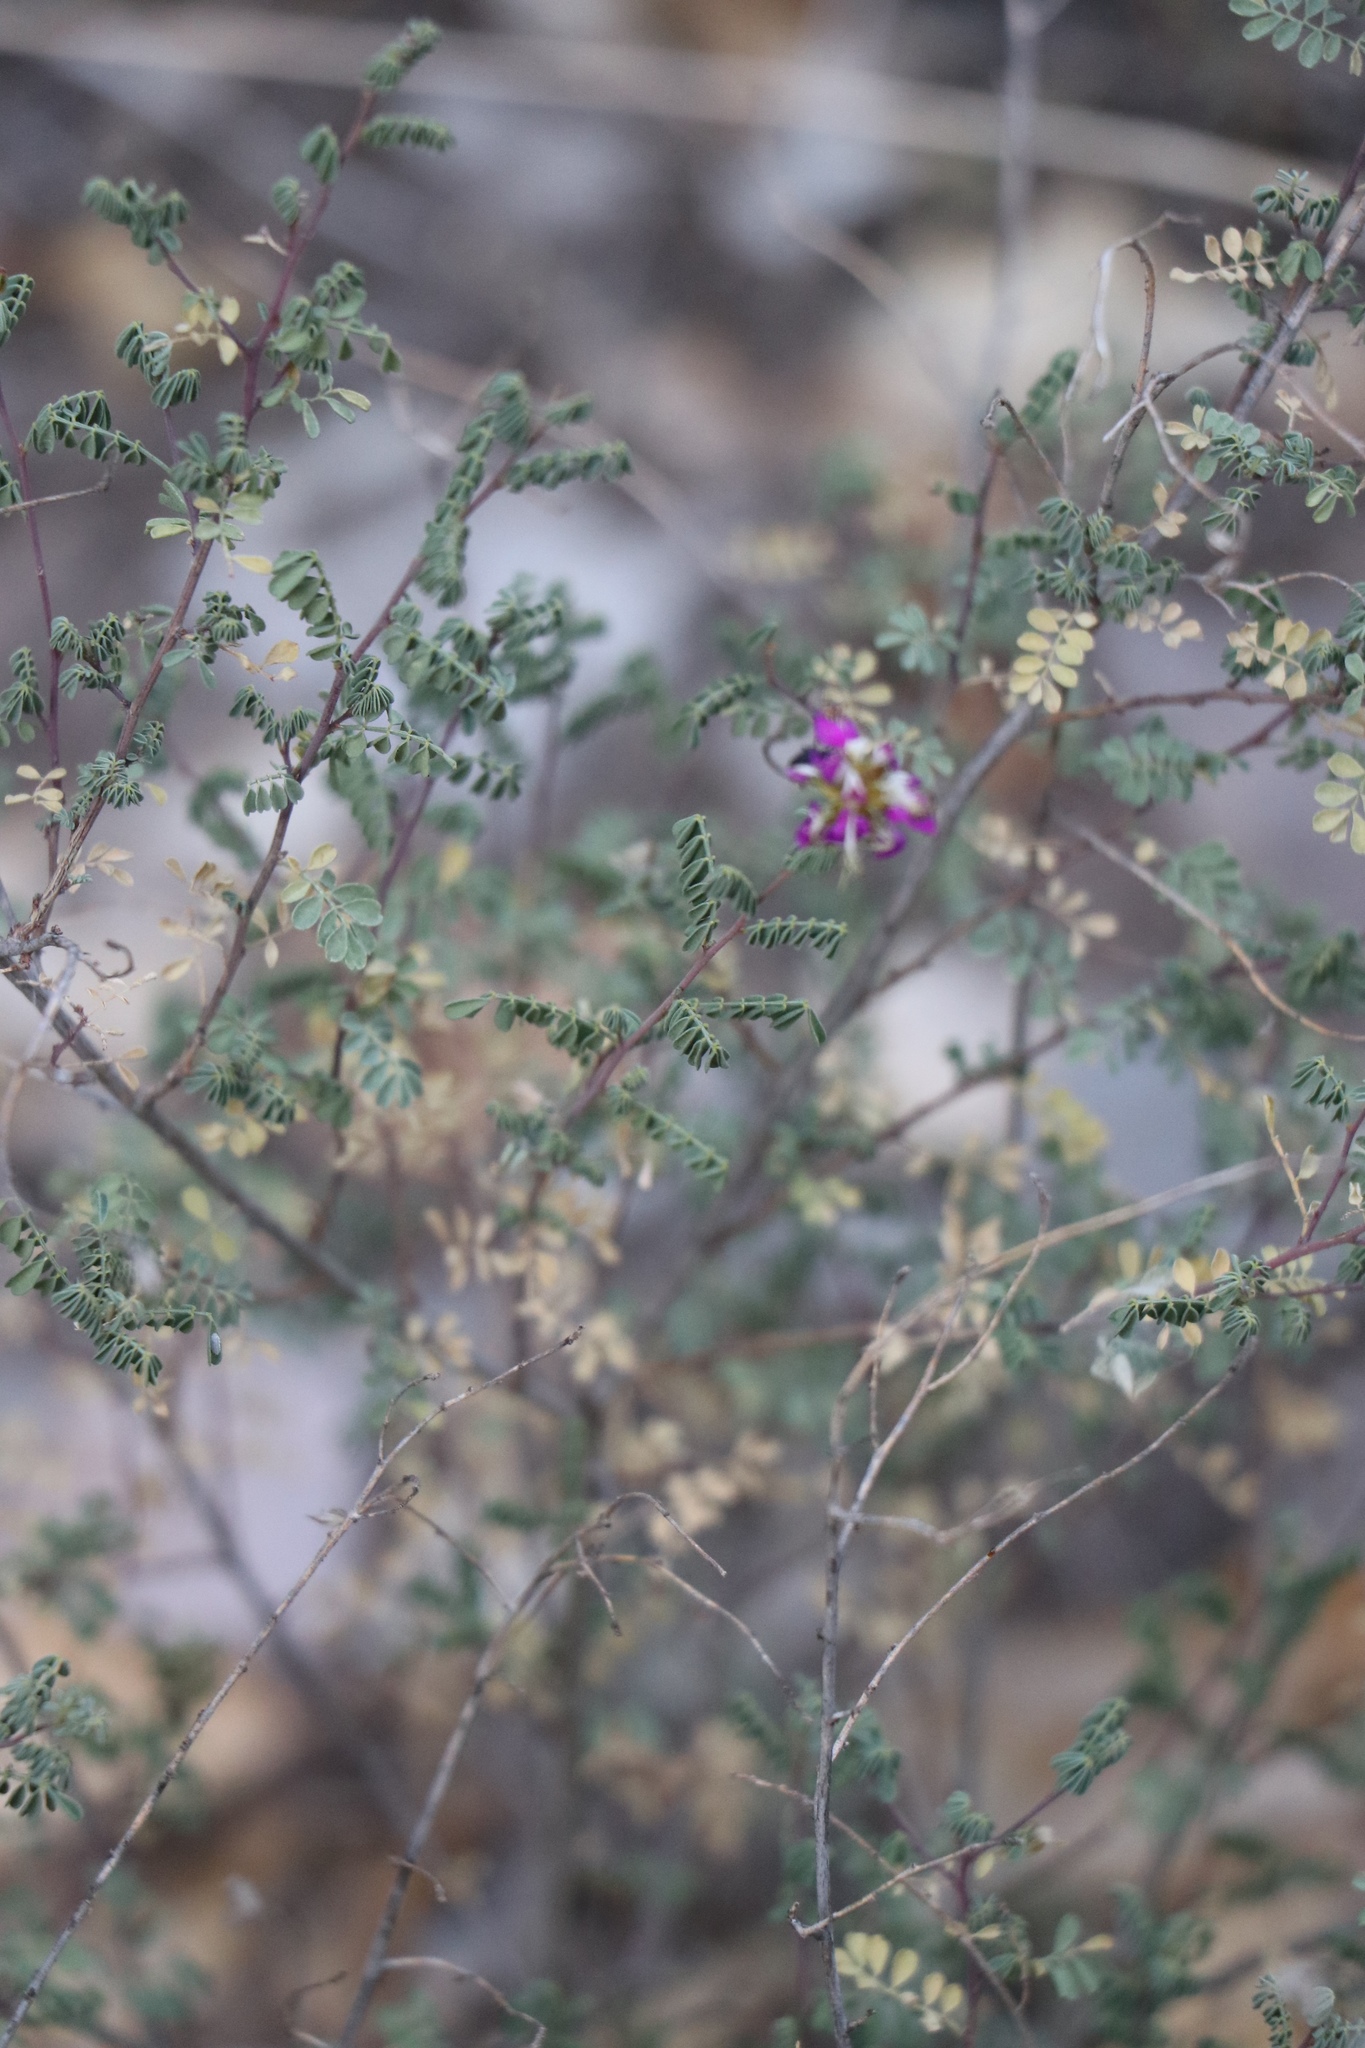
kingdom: Plantae
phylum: Tracheophyta
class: Magnoliopsida
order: Fabales
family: Fabaceae
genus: Dalea
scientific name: Dalea frutescens
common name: Black dalea
